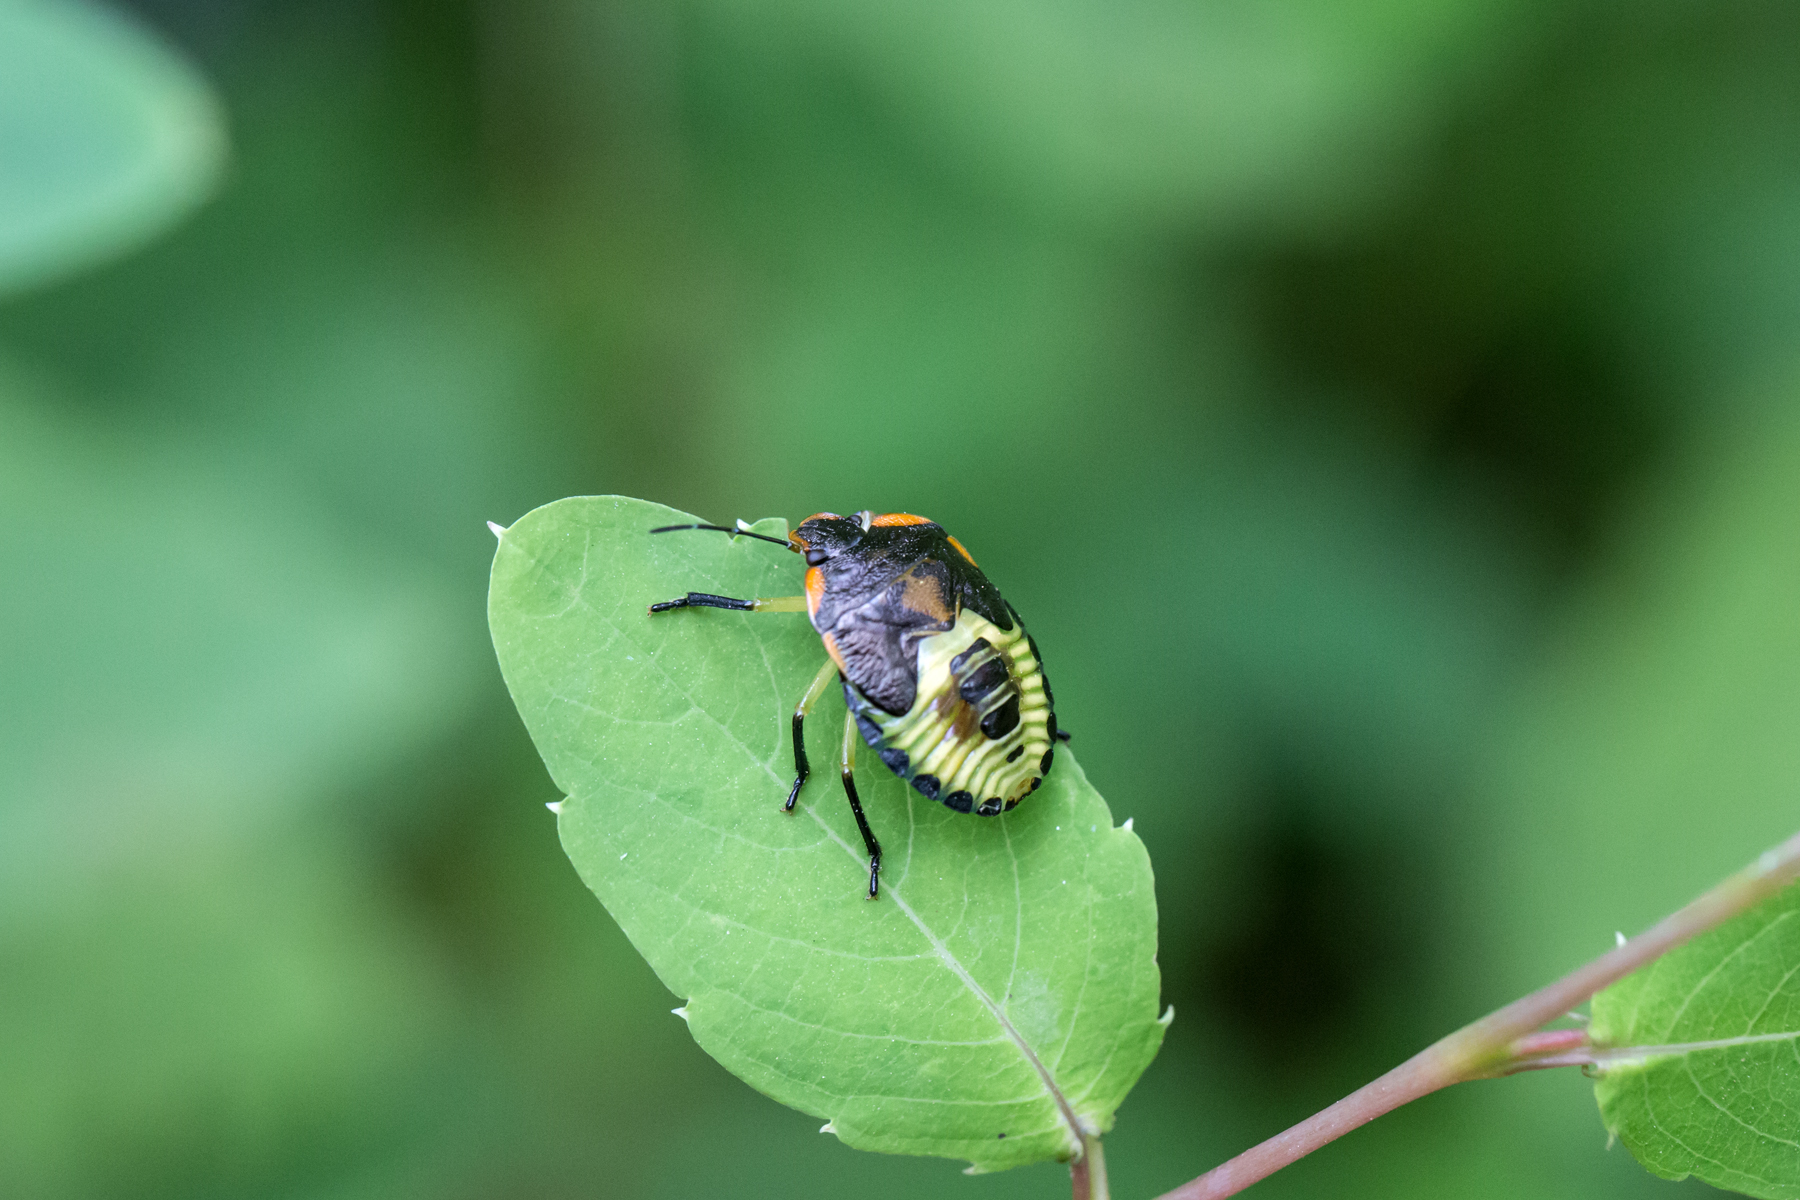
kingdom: Animalia
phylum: Arthropoda
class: Insecta
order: Hemiptera
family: Pentatomidae
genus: Chinavia
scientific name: Chinavia hilaris
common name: Green stink bug
